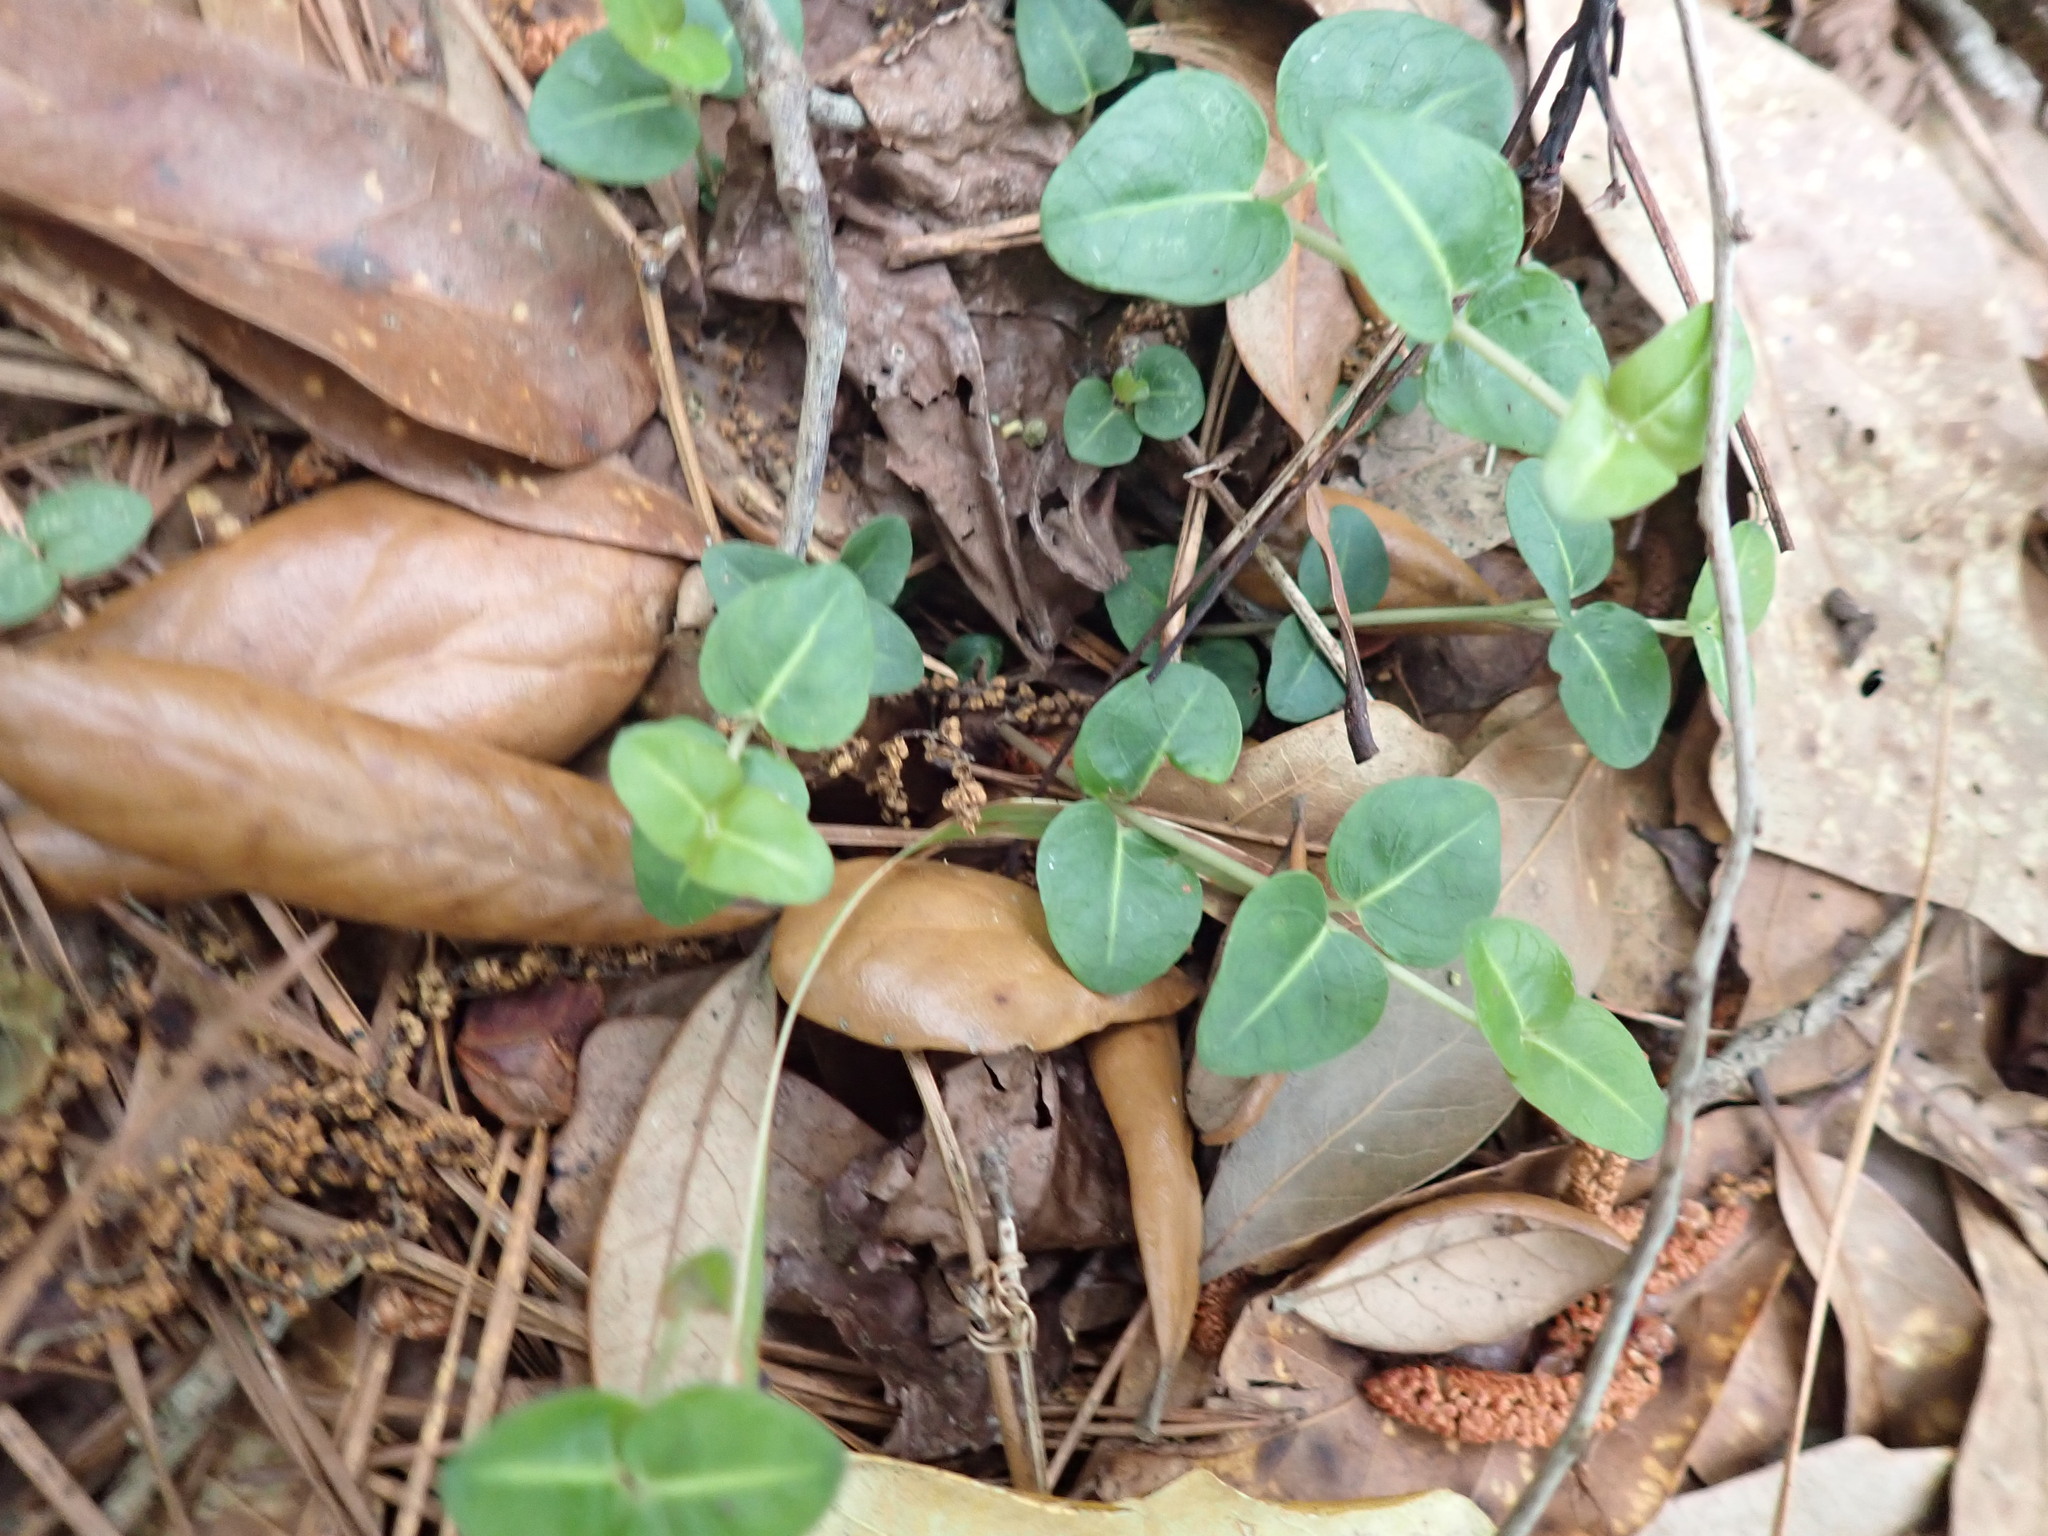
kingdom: Plantae
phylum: Tracheophyta
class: Magnoliopsida
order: Gentianales
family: Rubiaceae
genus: Mitchella
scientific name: Mitchella repens
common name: Partridge-berry
